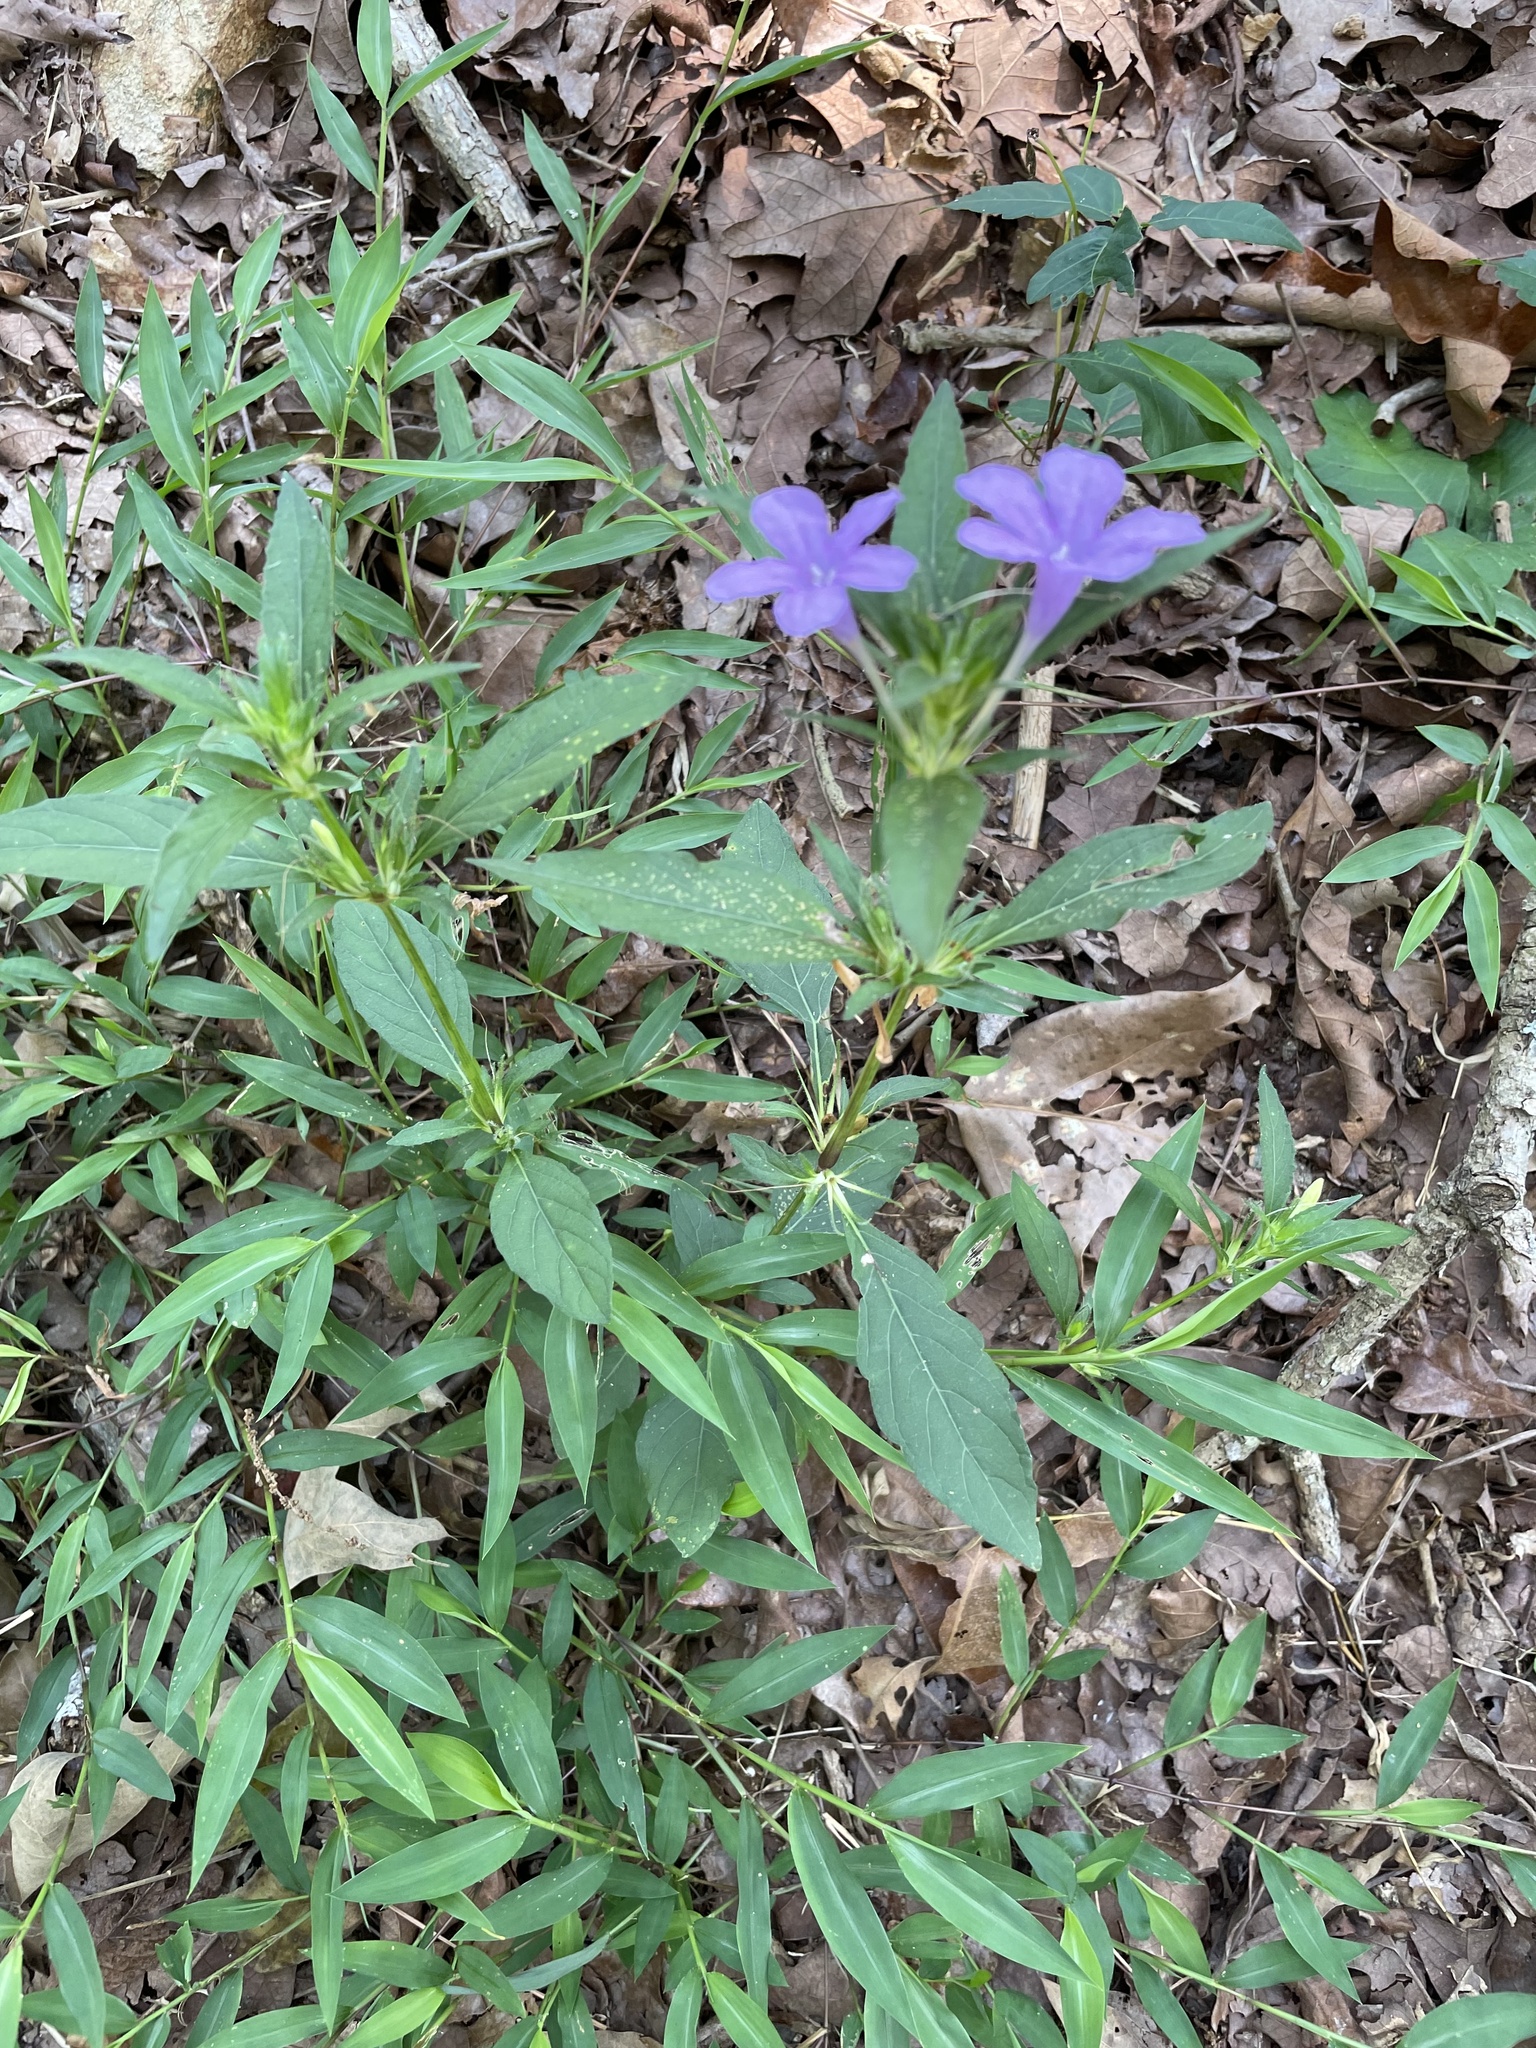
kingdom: Plantae
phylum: Tracheophyta
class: Magnoliopsida
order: Lamiales
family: Acanthaceae
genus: Ruellia
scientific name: Ruellia caroliniensis
